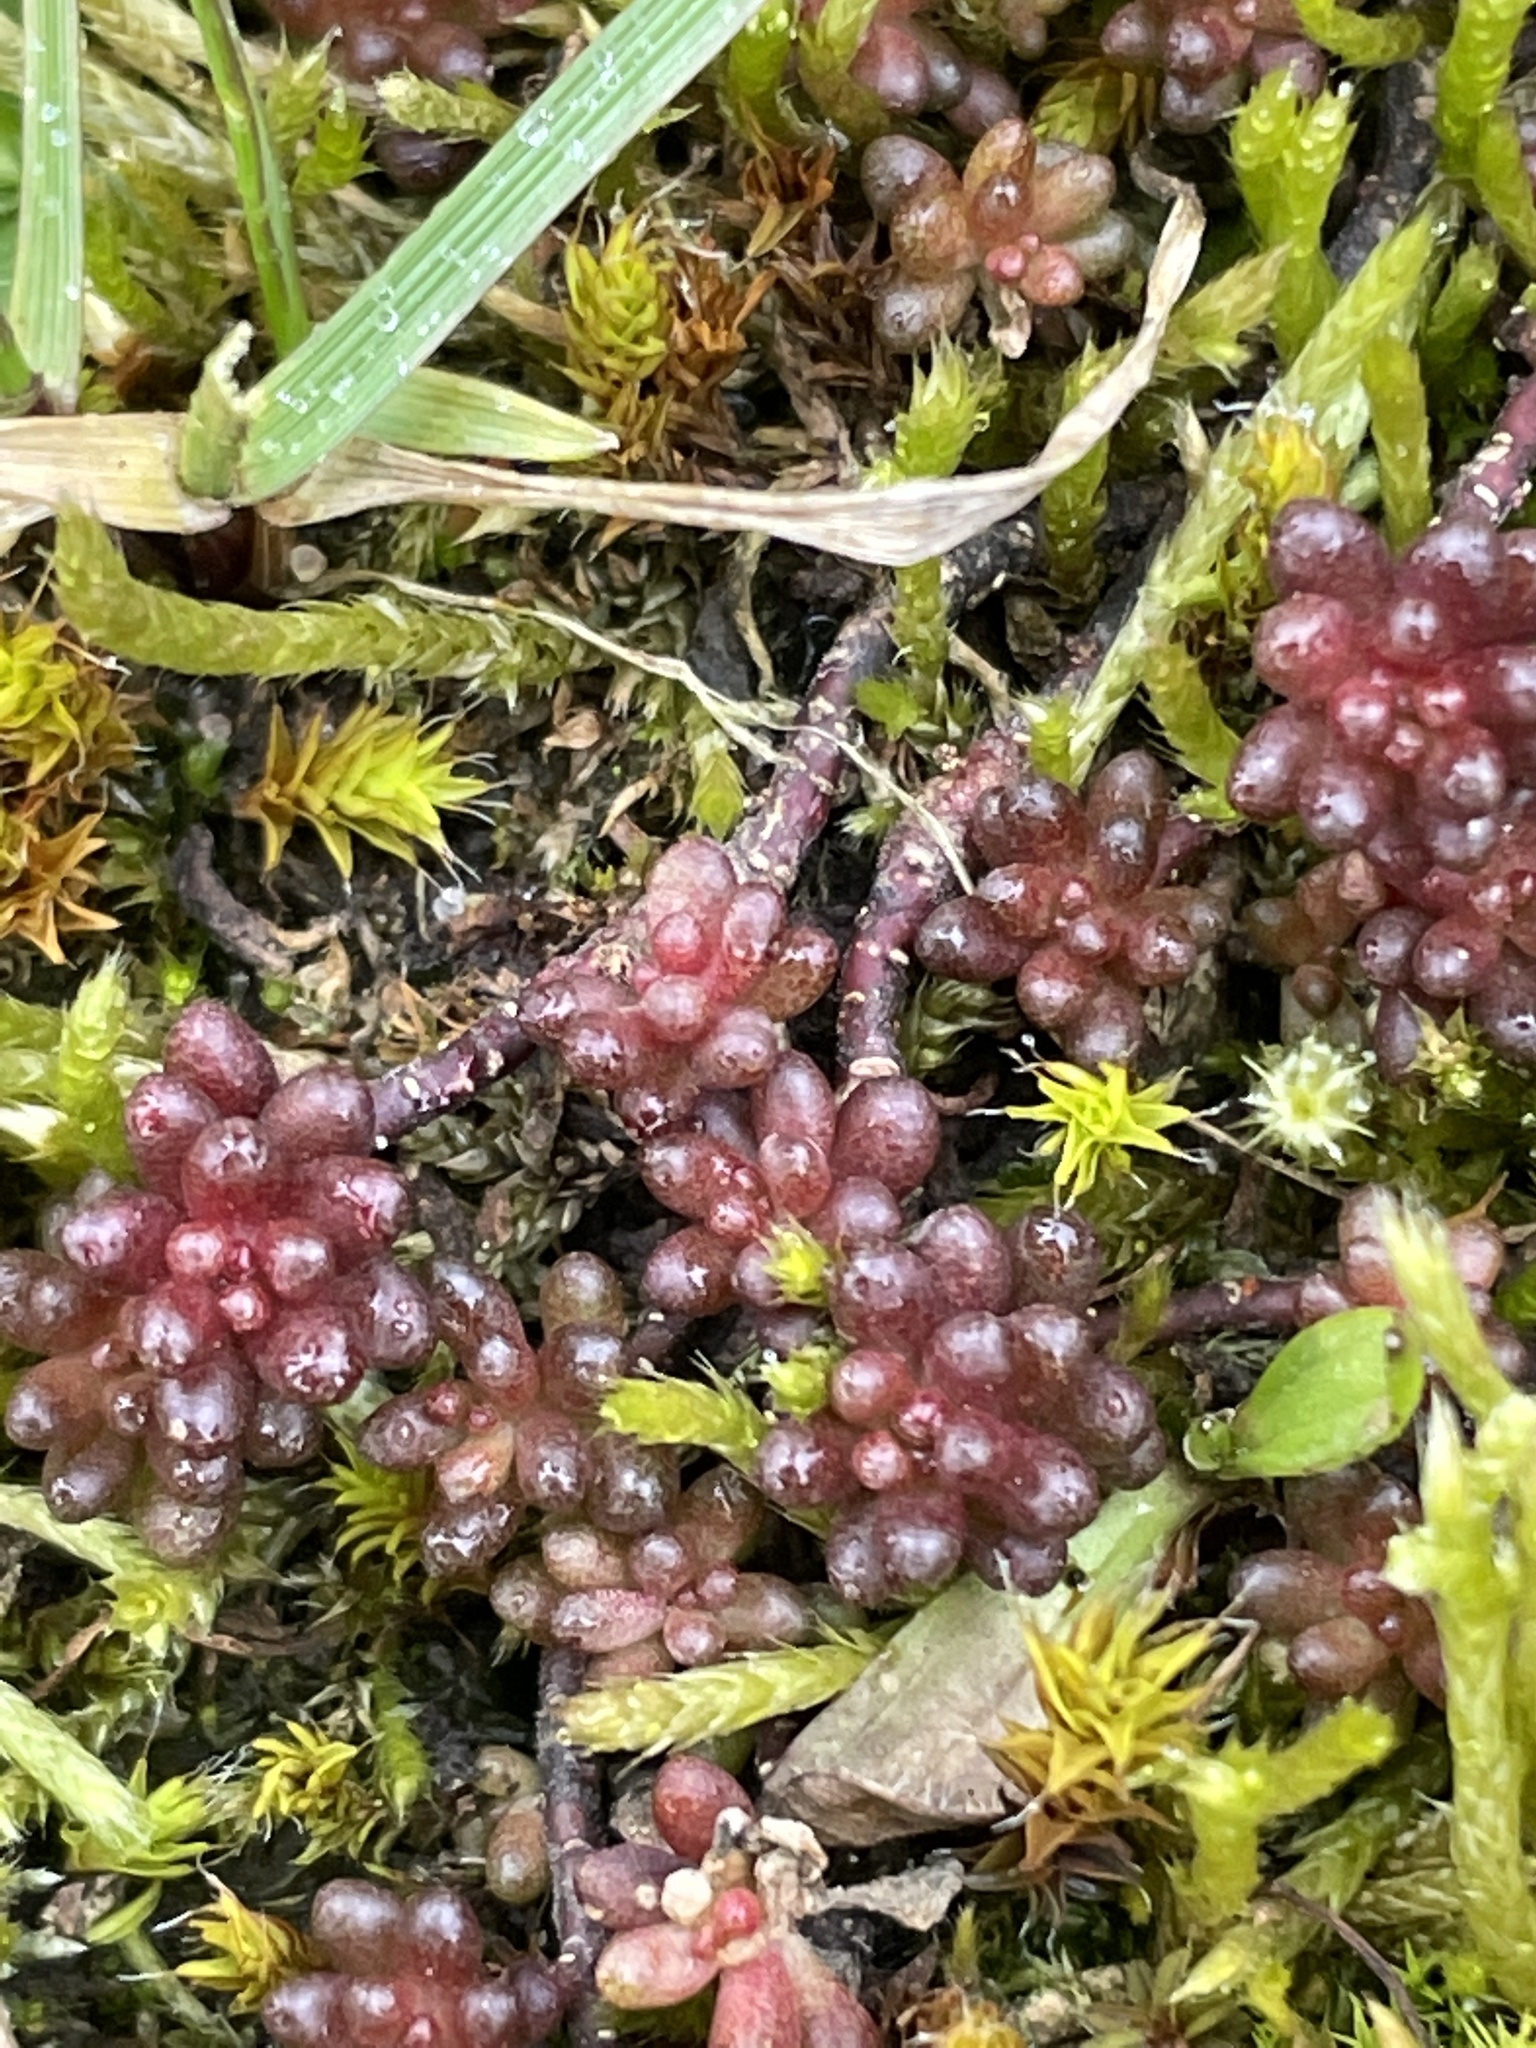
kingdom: Plantae
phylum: Tracheophyta
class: Magnoliopsida
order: Saxifragales
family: Crassulaceae
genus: Sedum
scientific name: Sedum album
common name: White stonecrop
